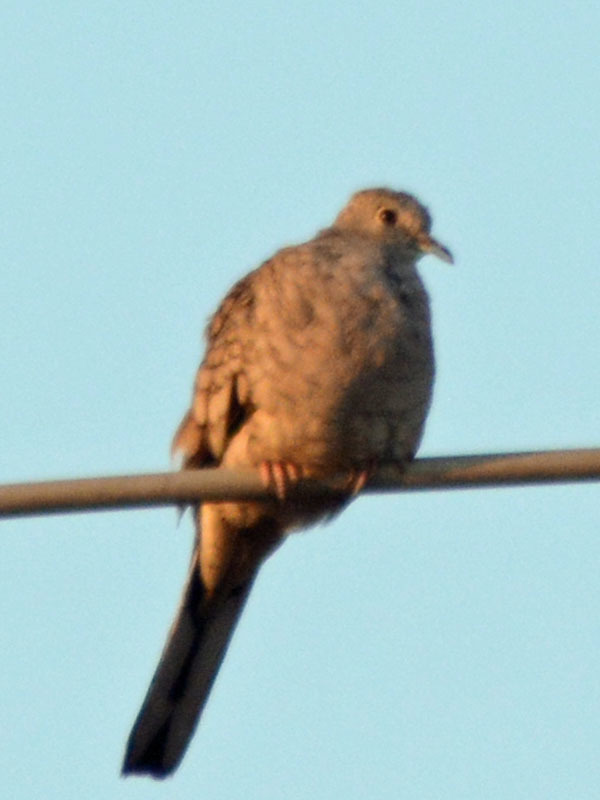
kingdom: Animalia
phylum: Chordata
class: Aves
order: Columbiformes
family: Columbidae
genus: Columbina
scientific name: Columbina inca
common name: Inca dove
